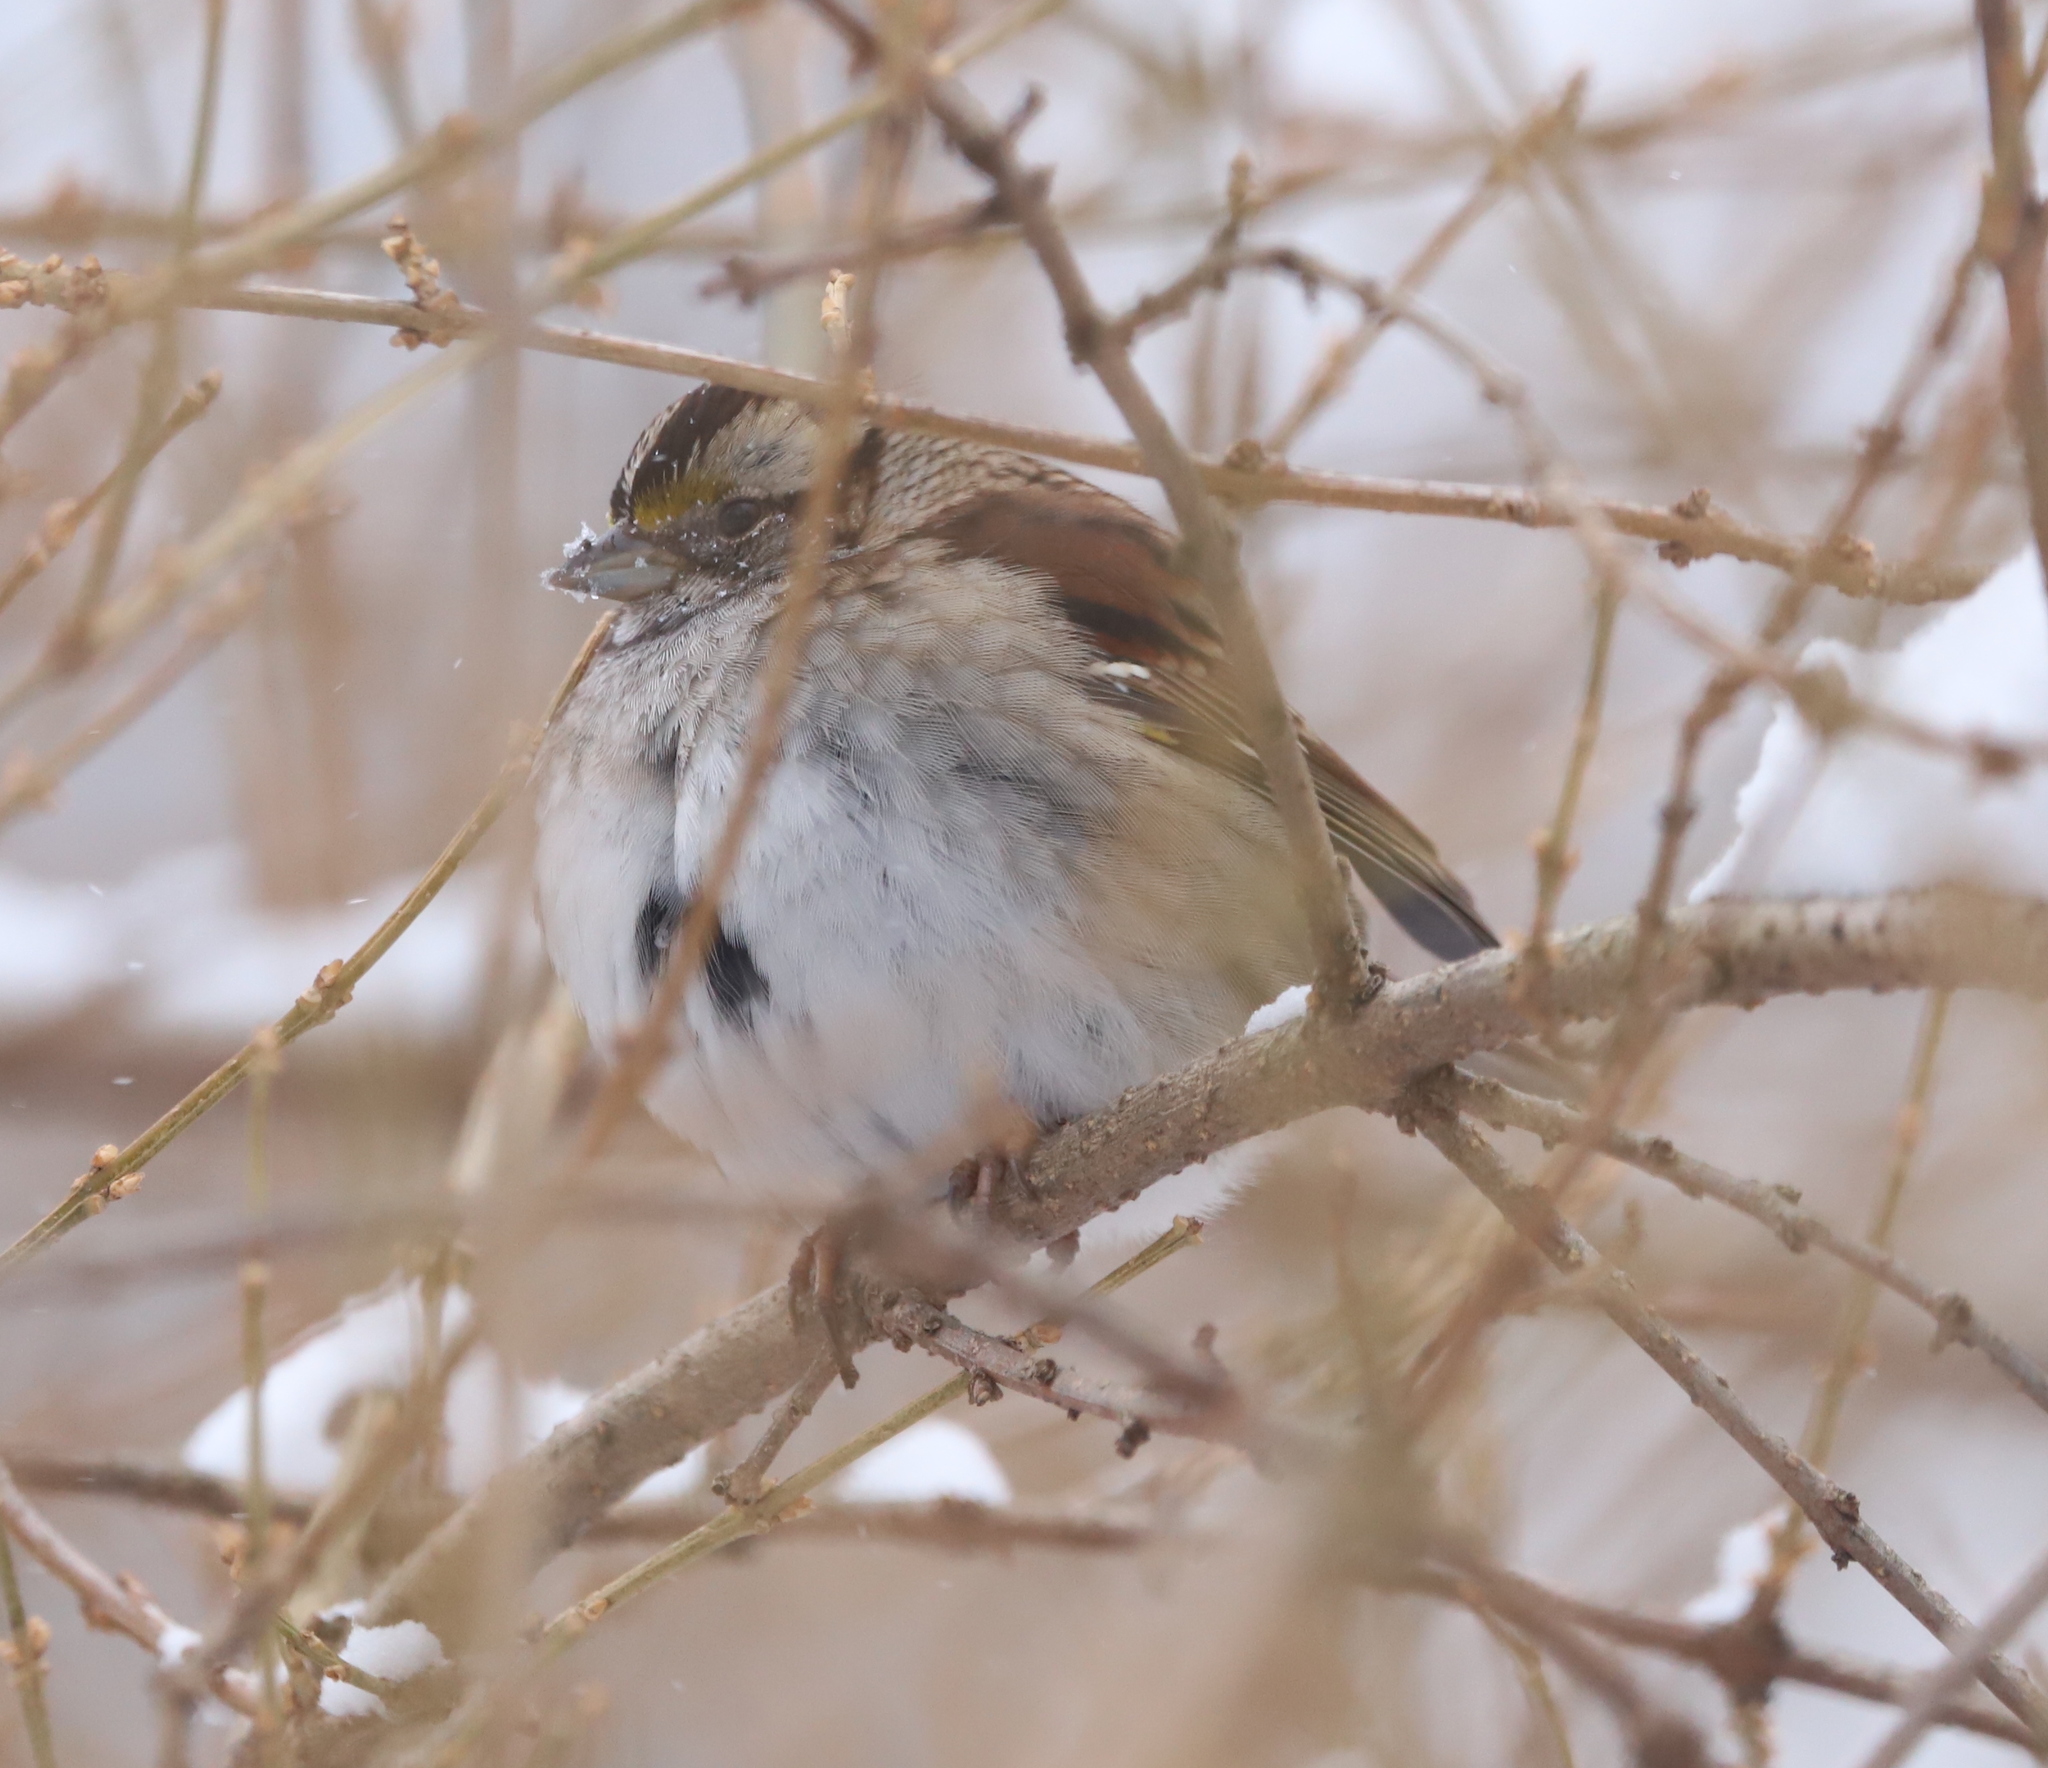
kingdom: Animalia
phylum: Chordata
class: Aves
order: Passeriformes
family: Passerellidae
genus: Zonotrichia
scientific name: Zonotrichia albicollis
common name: White-throated sparrow
